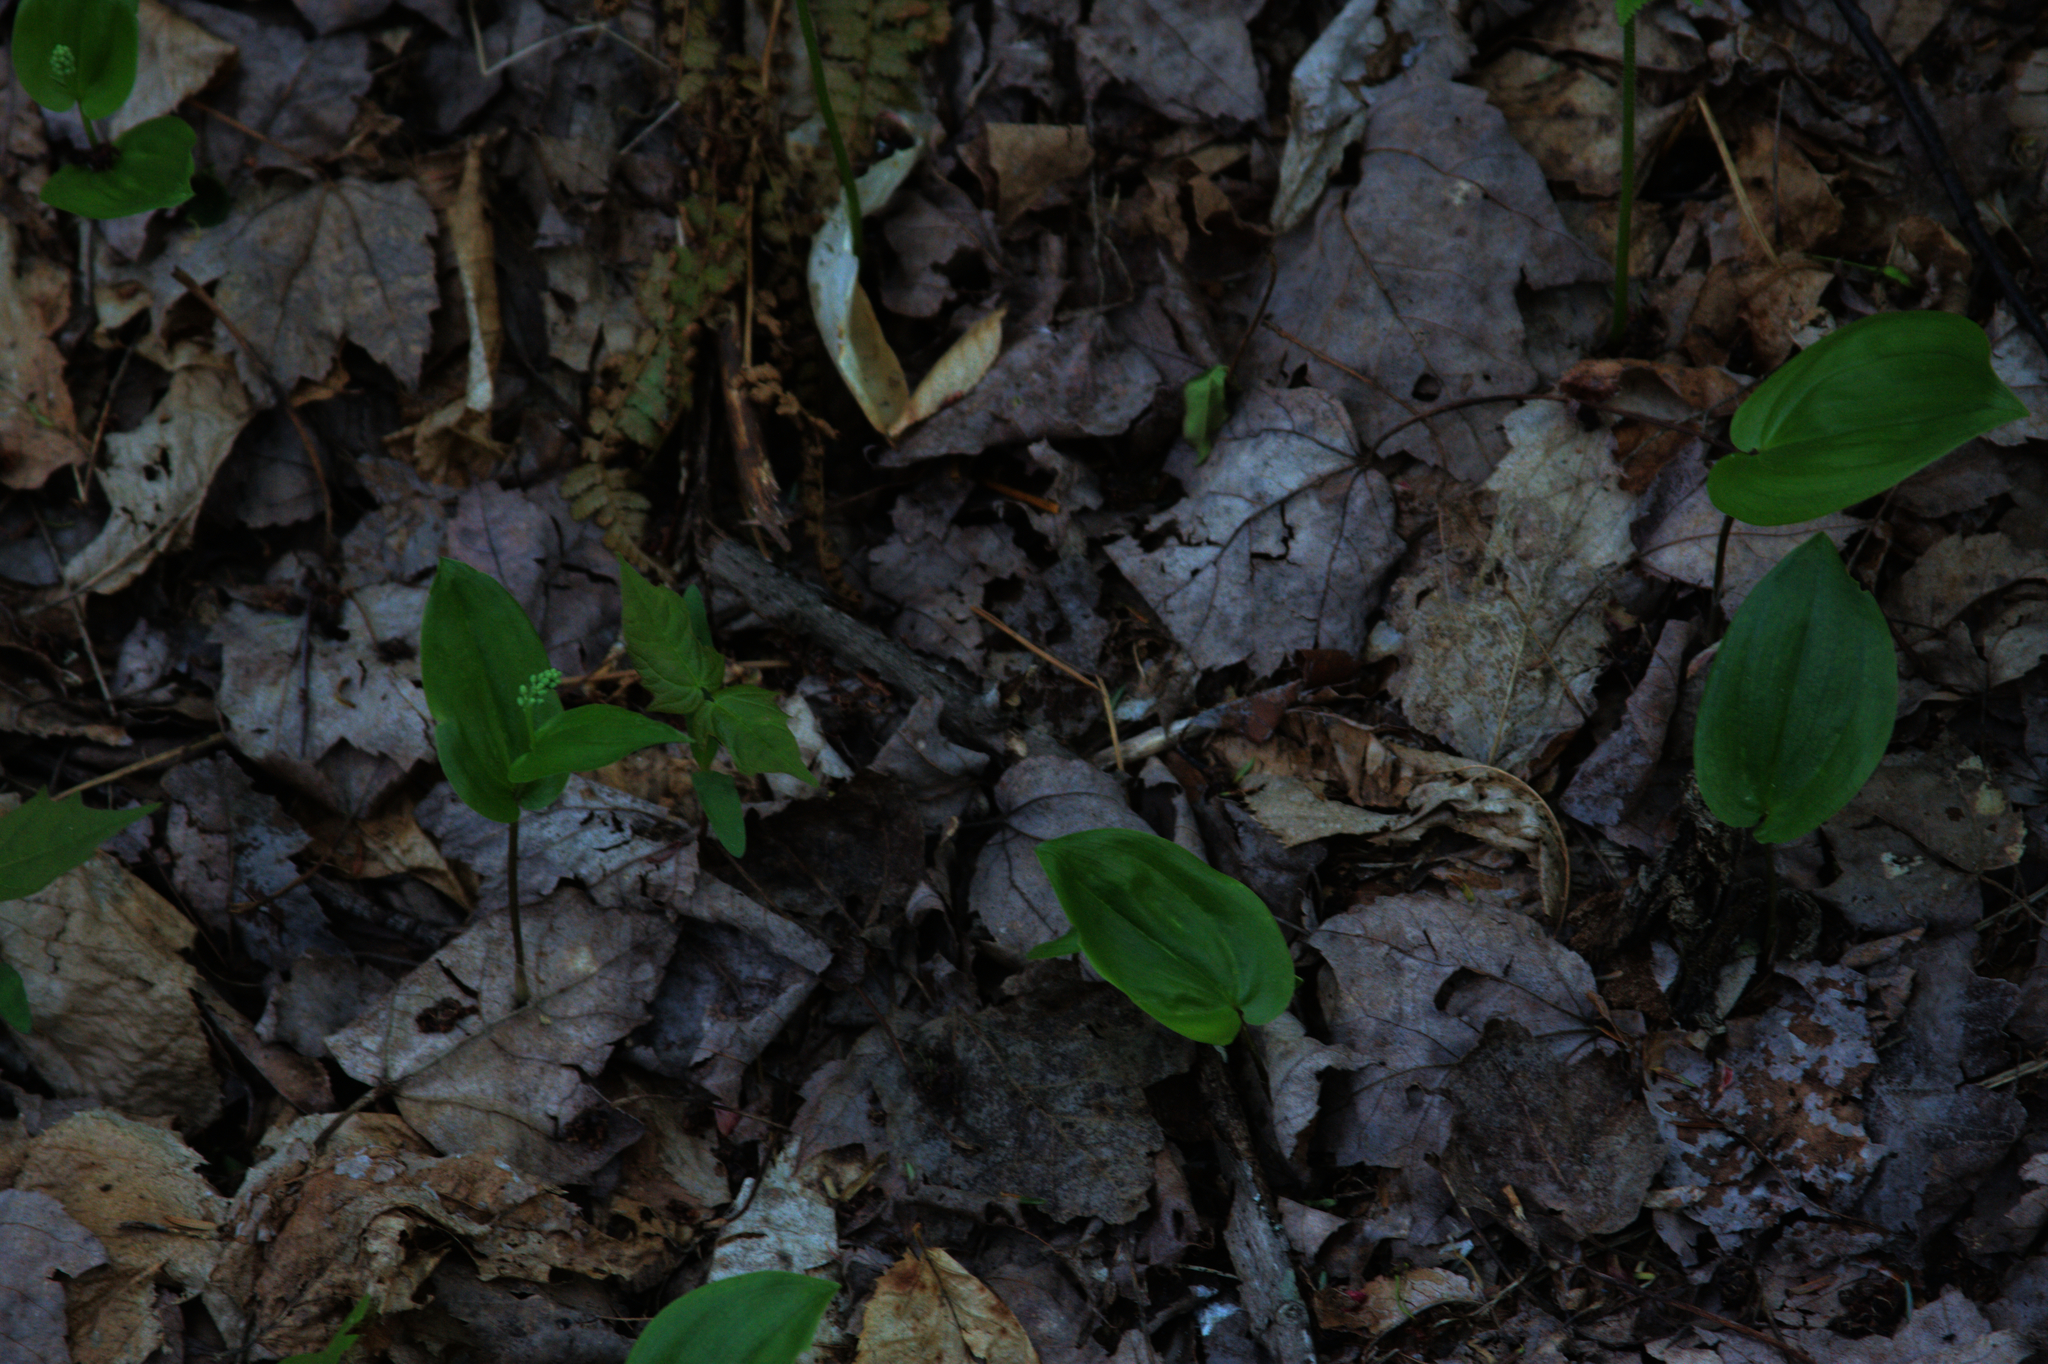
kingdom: Plantae
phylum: Tracheophyta
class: Liliopsida
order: Asparagales
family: Asparagaceae
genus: Maianthemum
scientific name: Maianthemum canadense
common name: False lily-of-the-valley
